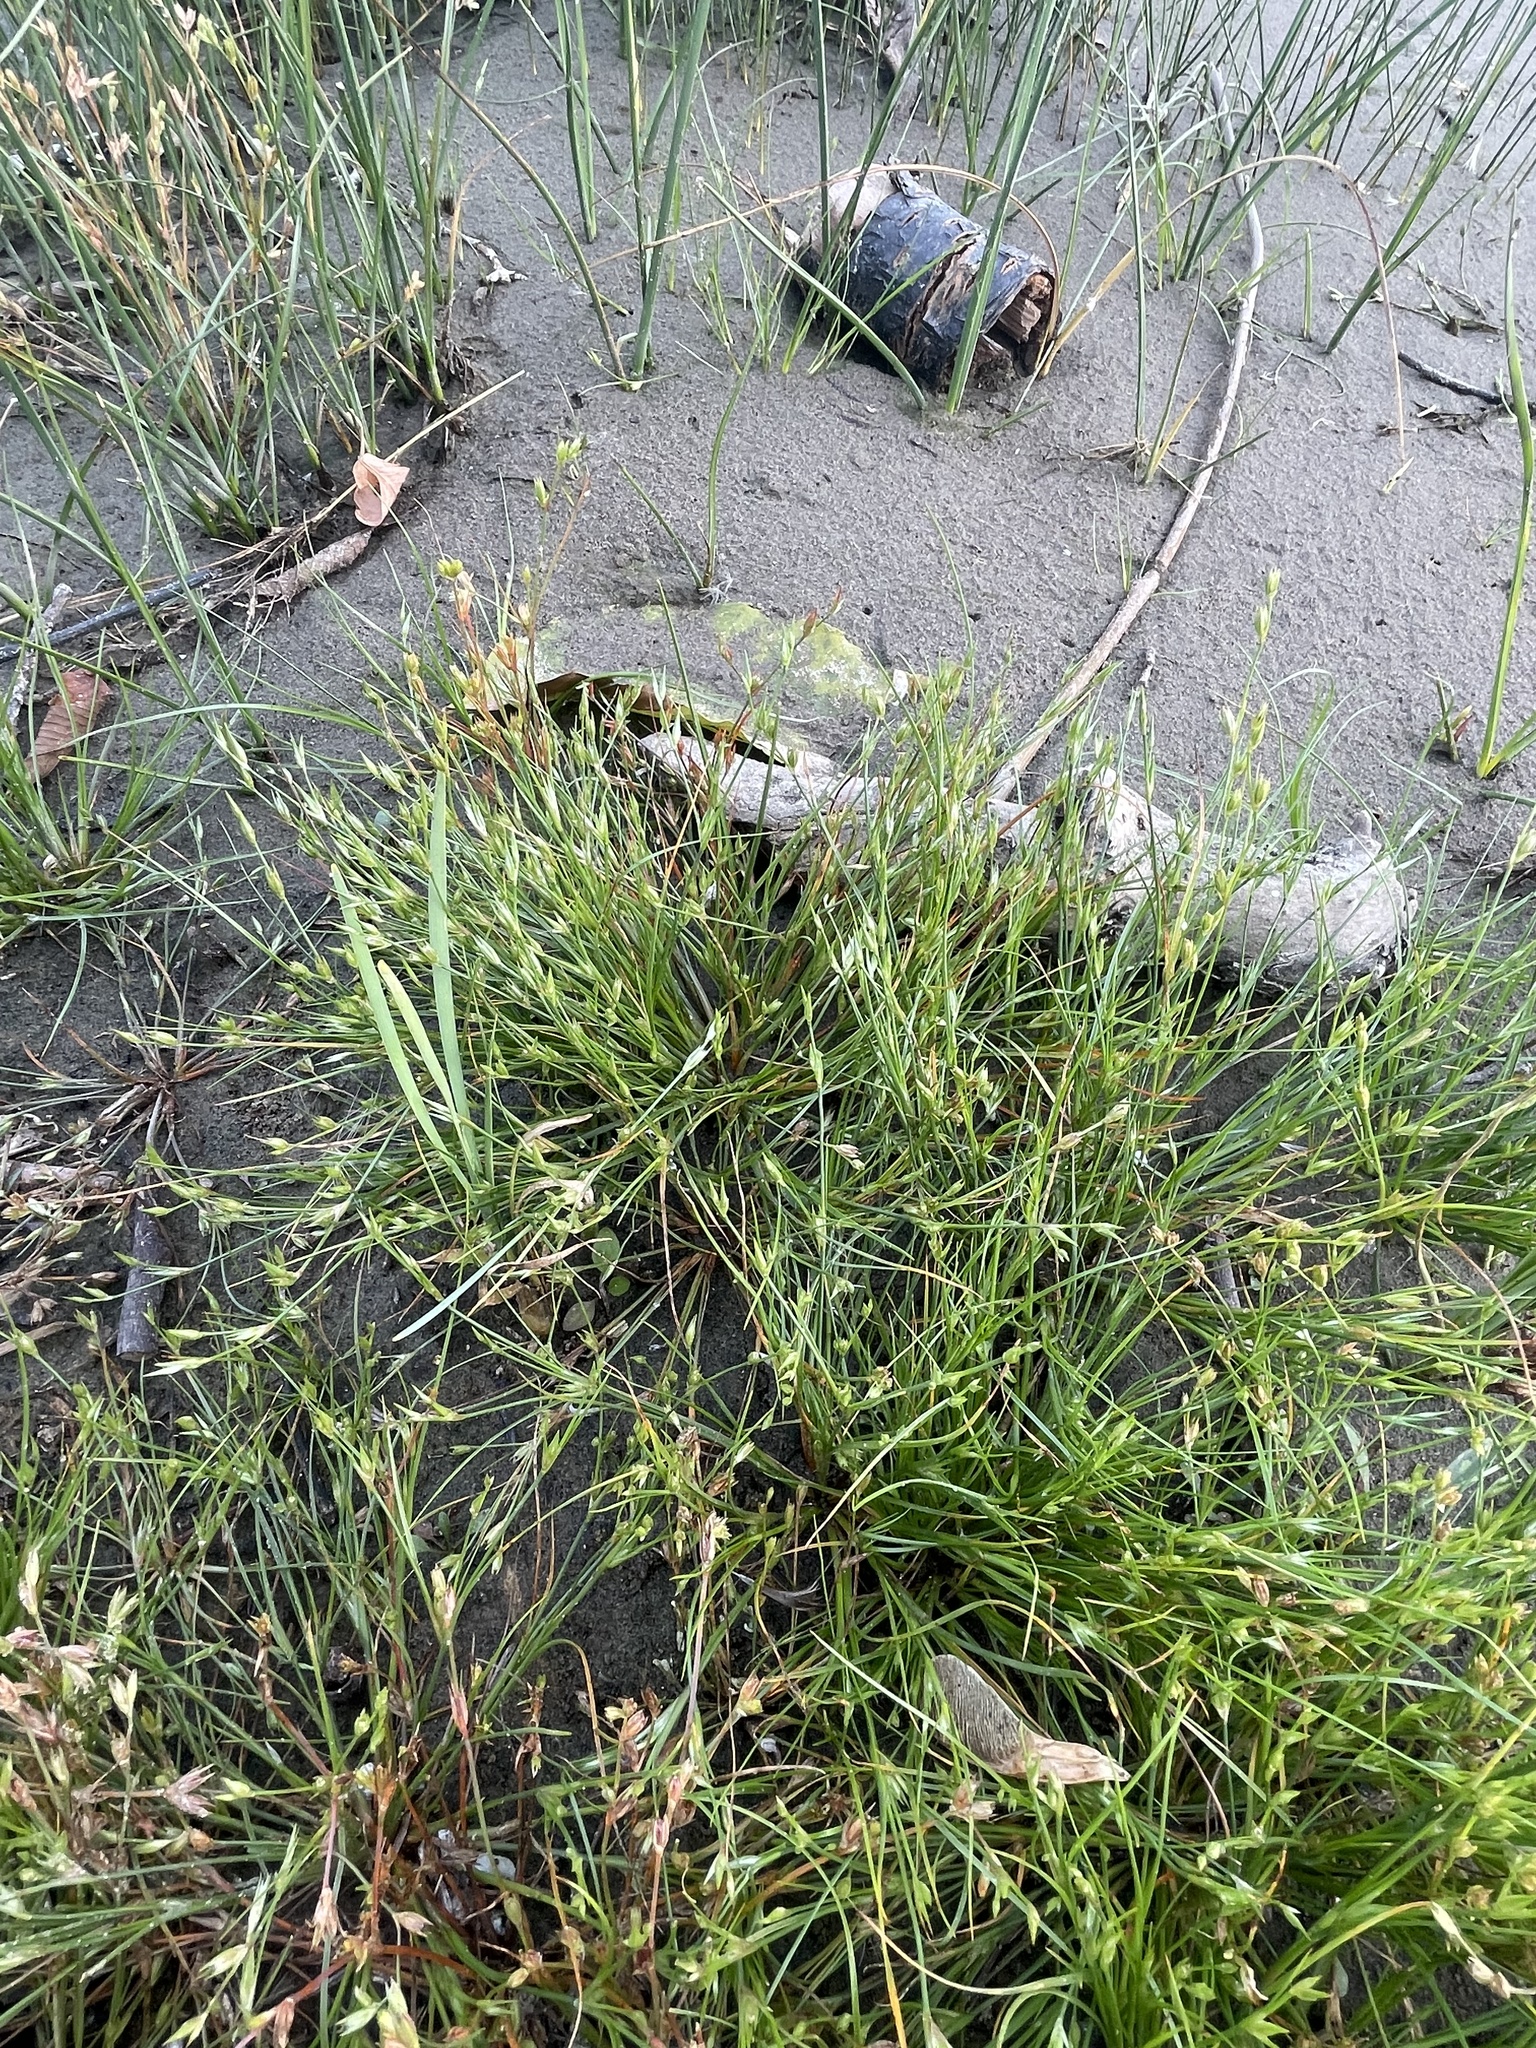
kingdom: Plantae
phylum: Tracheophyta
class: Liliopsida
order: Poales
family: Juncaceae
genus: Juncus
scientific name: Juncus bufonius
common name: Toad rush
